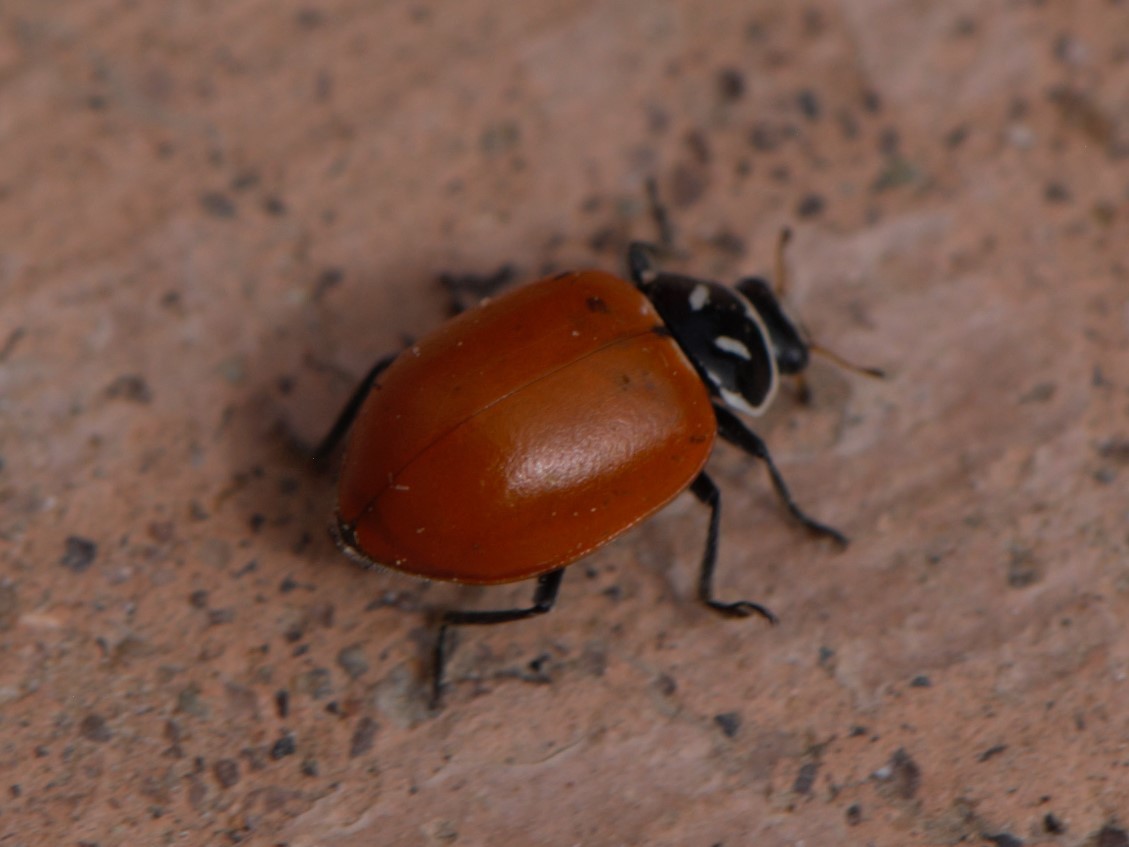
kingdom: Animalia
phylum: Arthropoda
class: Insecta
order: Coleoptera
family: Coccinellidae
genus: Hippodamia
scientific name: Hippodamia convergens
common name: Convergent lady beetle
